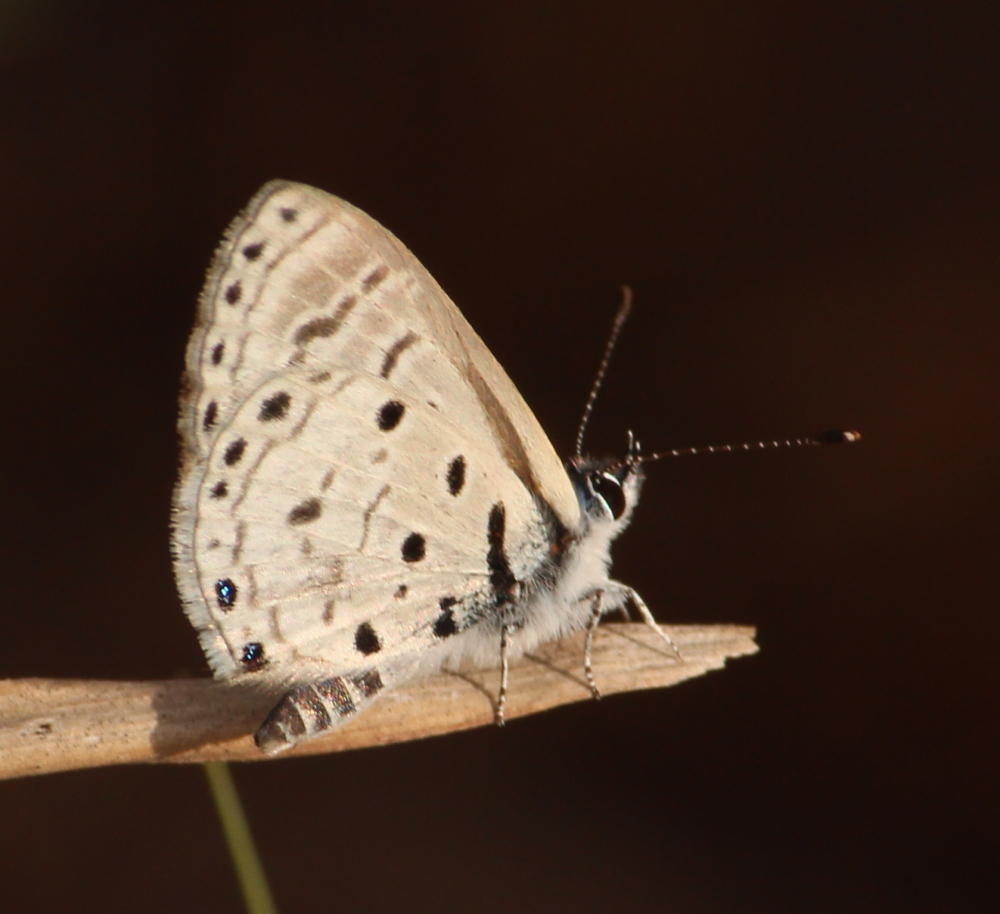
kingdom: Animalia
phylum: Arthropoda
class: Insecta
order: Lepidoptera
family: Lycaenidae
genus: Azanus
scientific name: Azanus moriqua
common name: Thorn-tree babul blue
